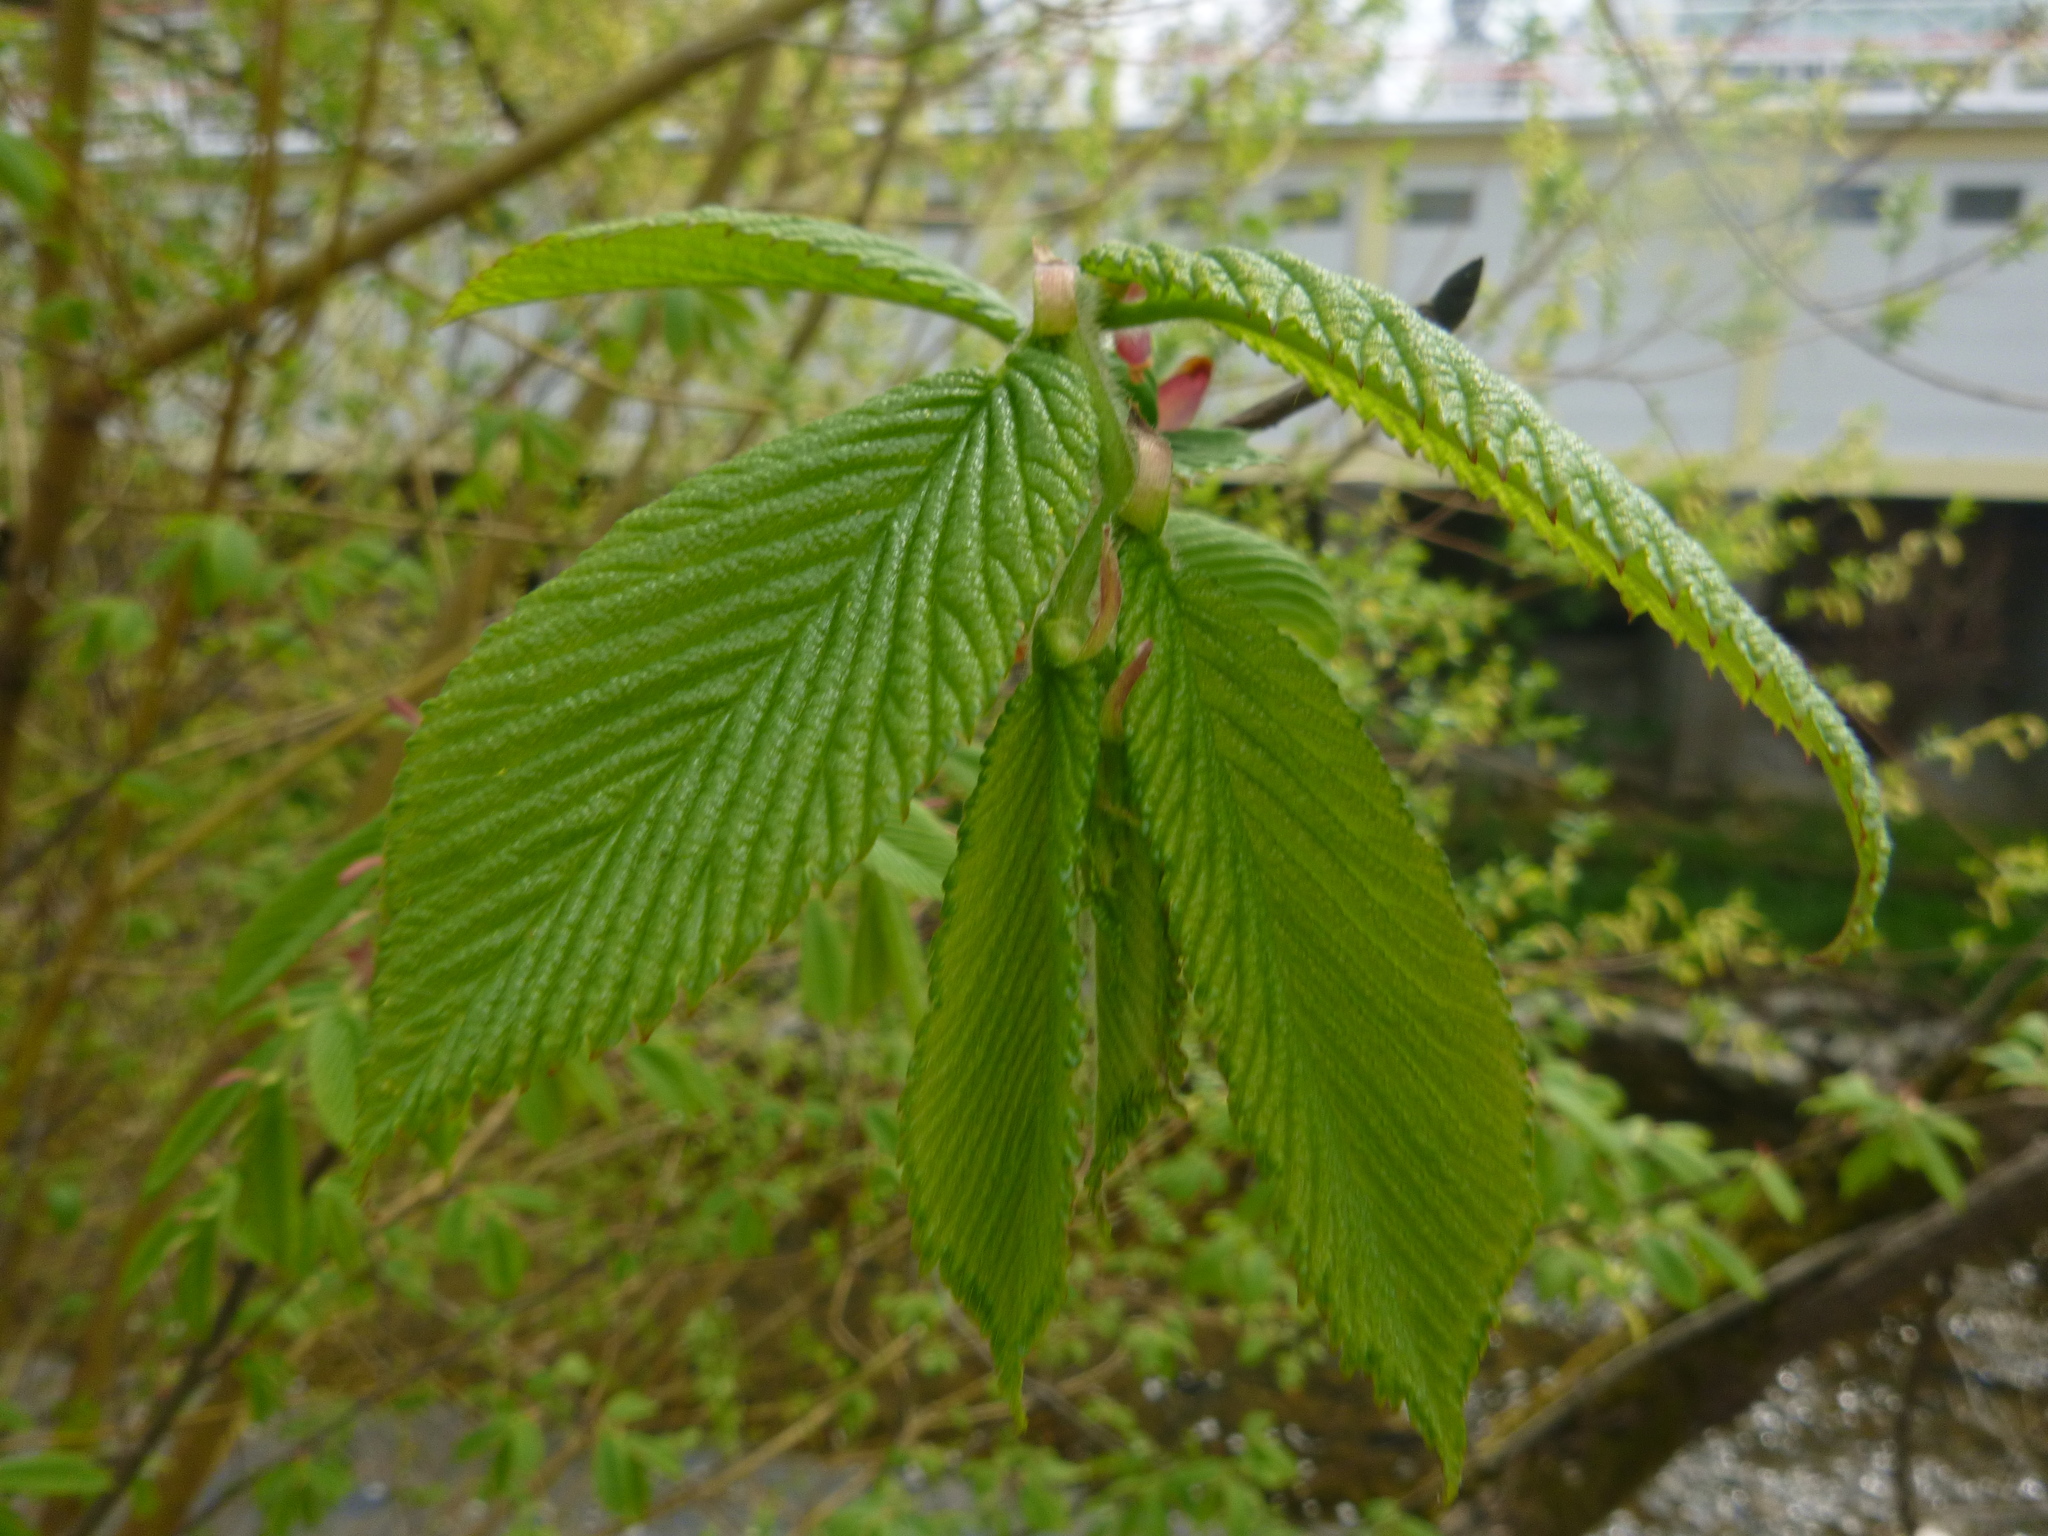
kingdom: Plantae
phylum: Tracheophyta
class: Magnoliopsida
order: Fagales
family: Betulaceae
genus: Carpinus
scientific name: Carpinus betulus
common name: Hornbeam
